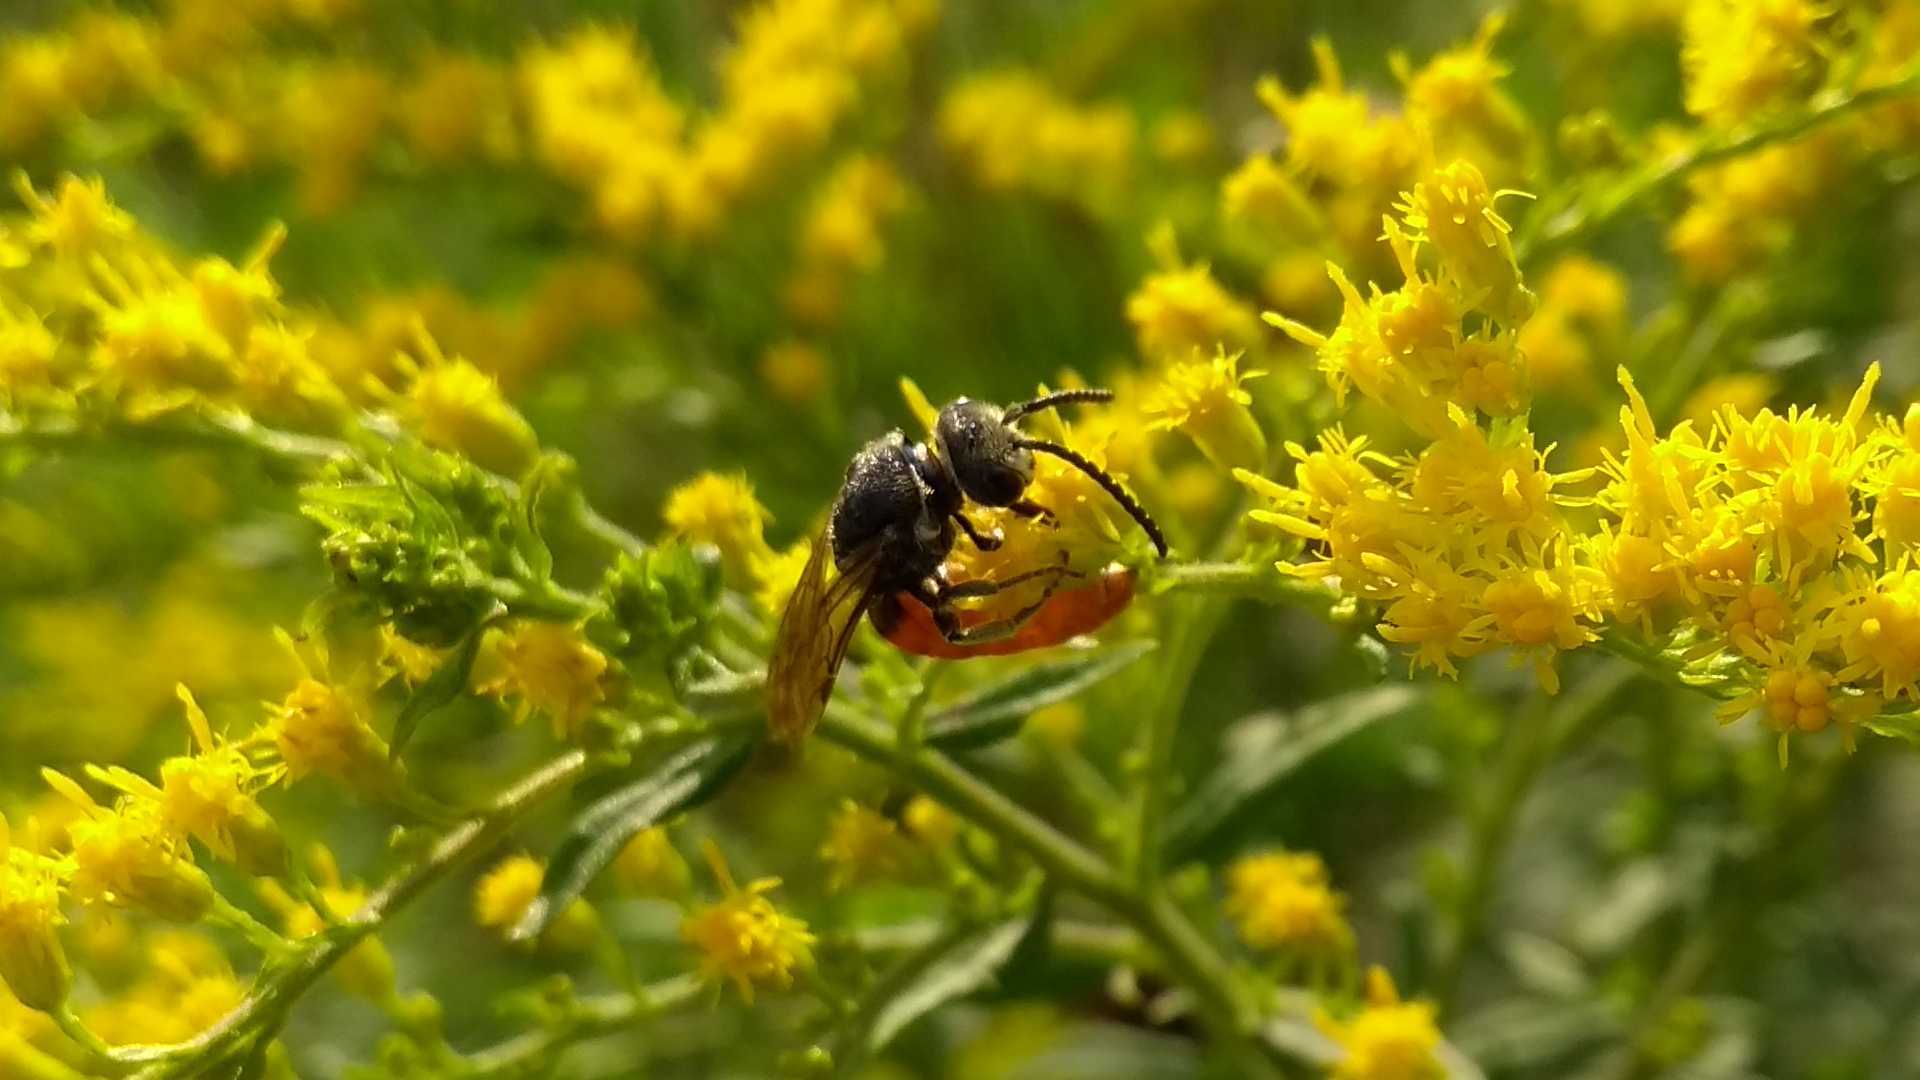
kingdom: Animalia
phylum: Arthropoda
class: Insecta
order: Hymenoptera
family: Halictidae
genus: Sphecodes
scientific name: Sphecodes albilabris
